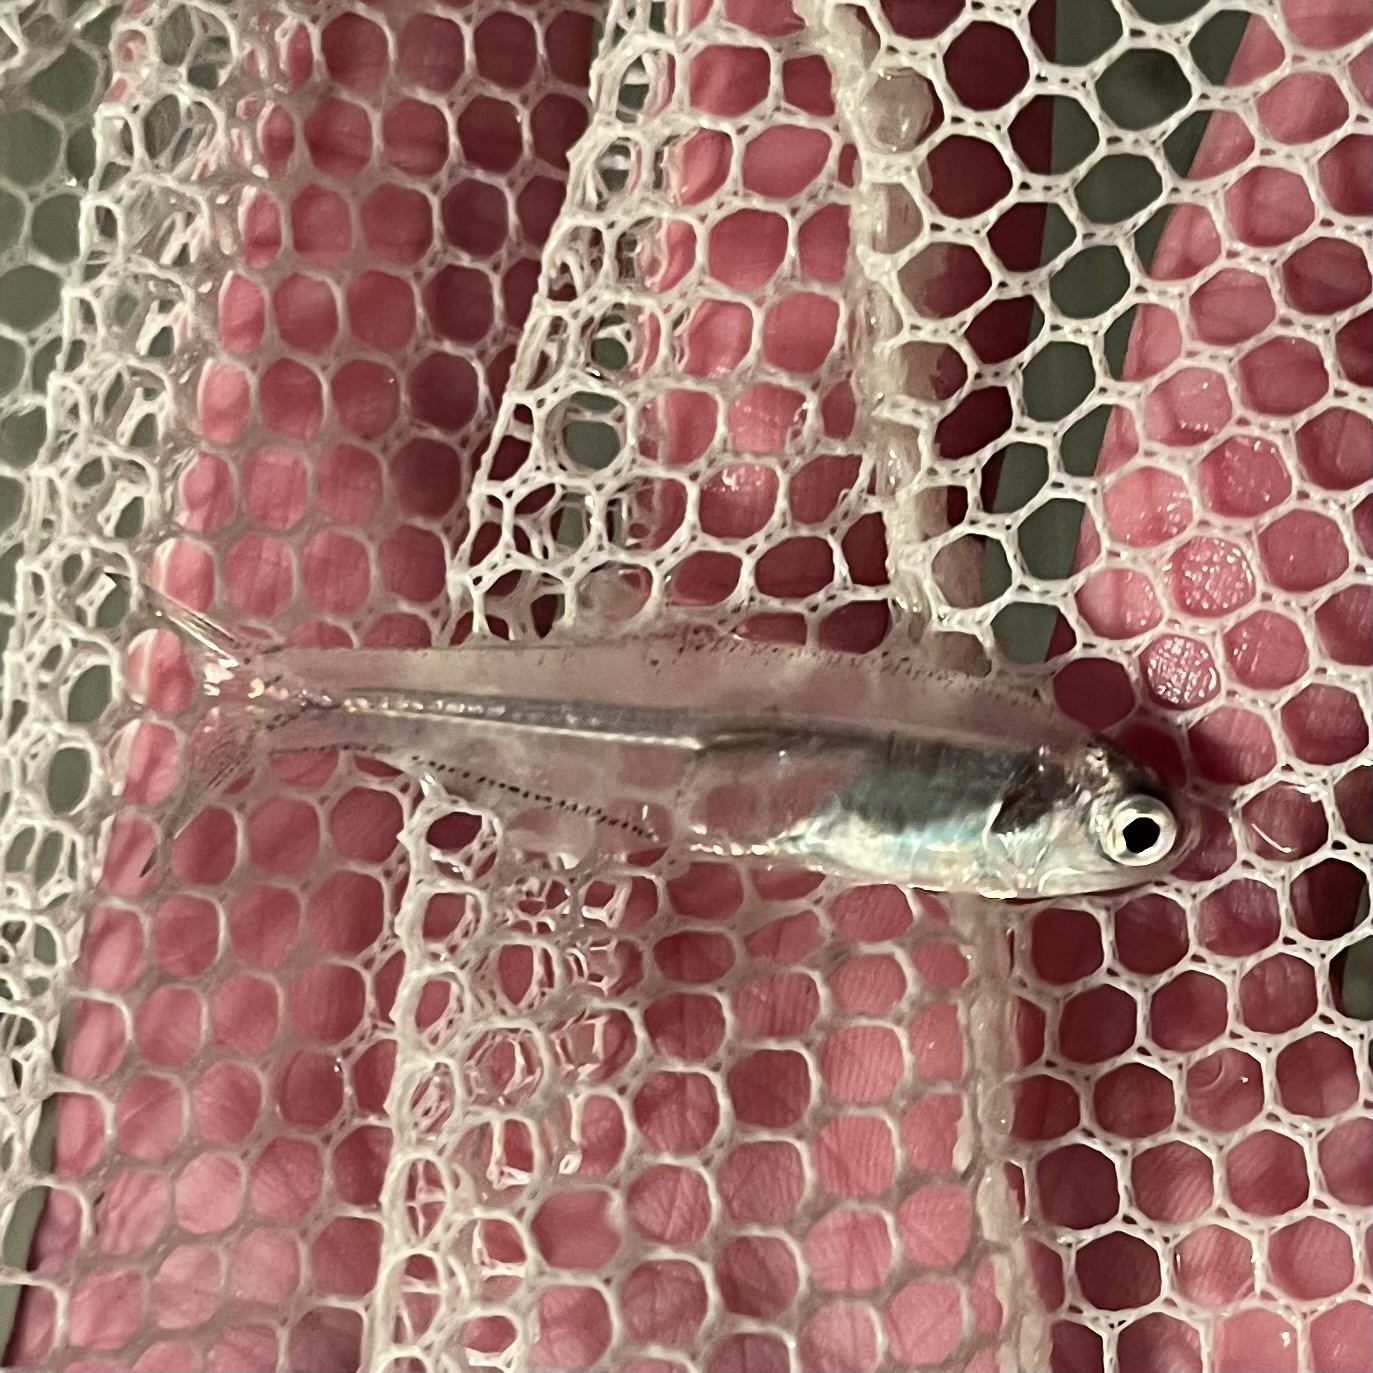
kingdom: Animalia
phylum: Chordata
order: Clupeiformes
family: Engraulidae
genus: Anchoa
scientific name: Anchoa mitchilli
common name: Bay anchovy
